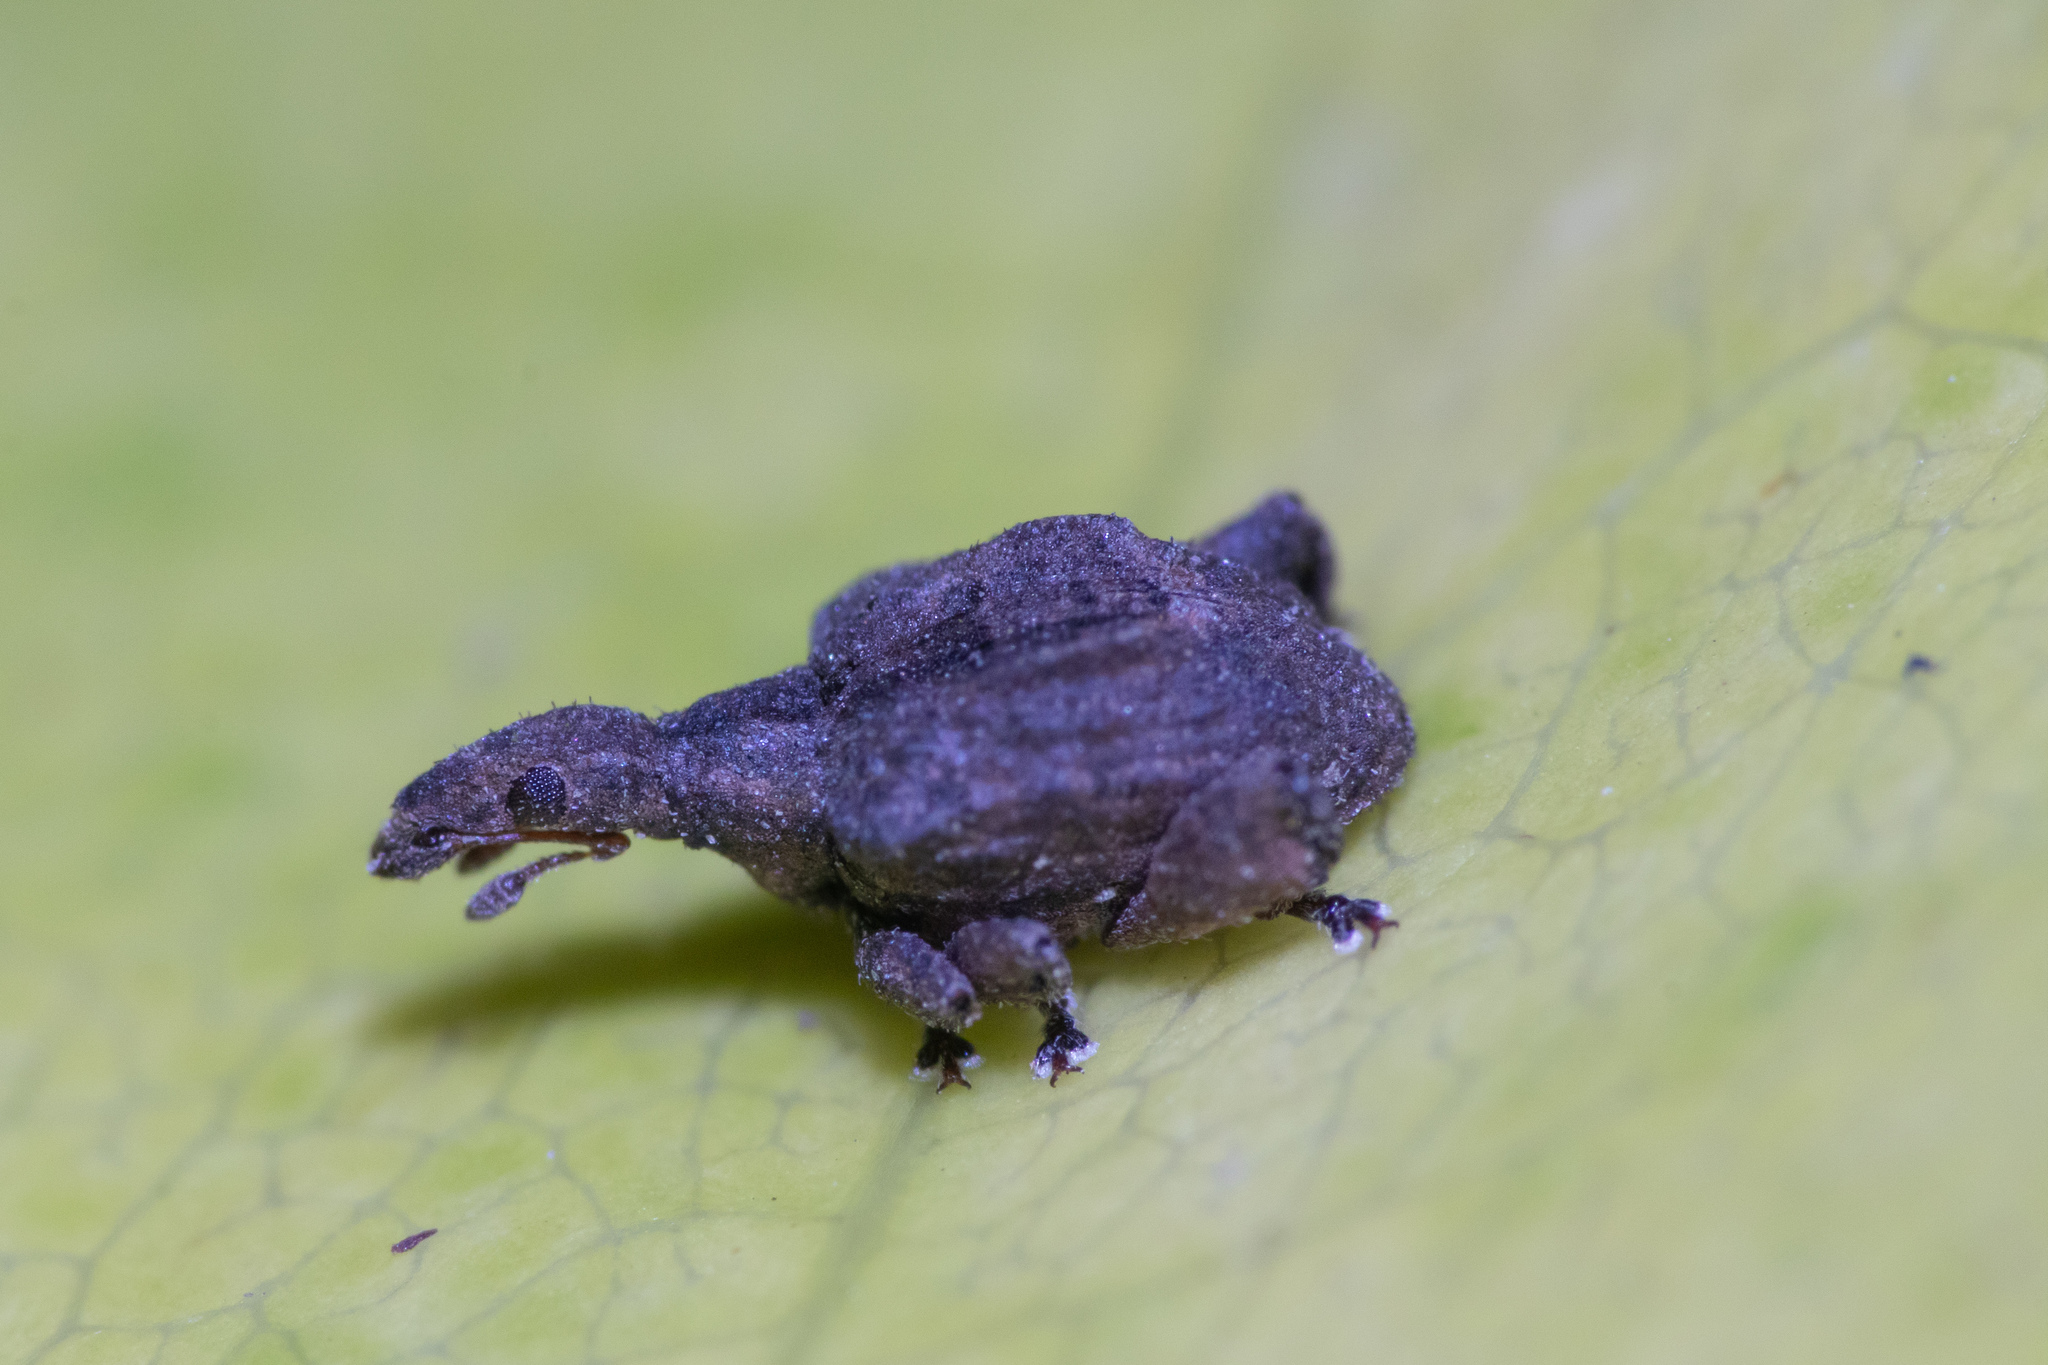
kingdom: Animalia
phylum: Arthropoda
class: Insecta
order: Coleoptera
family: Curculionidae
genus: Stephanorrhynchus
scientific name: Stephanorrhynchus crassus
